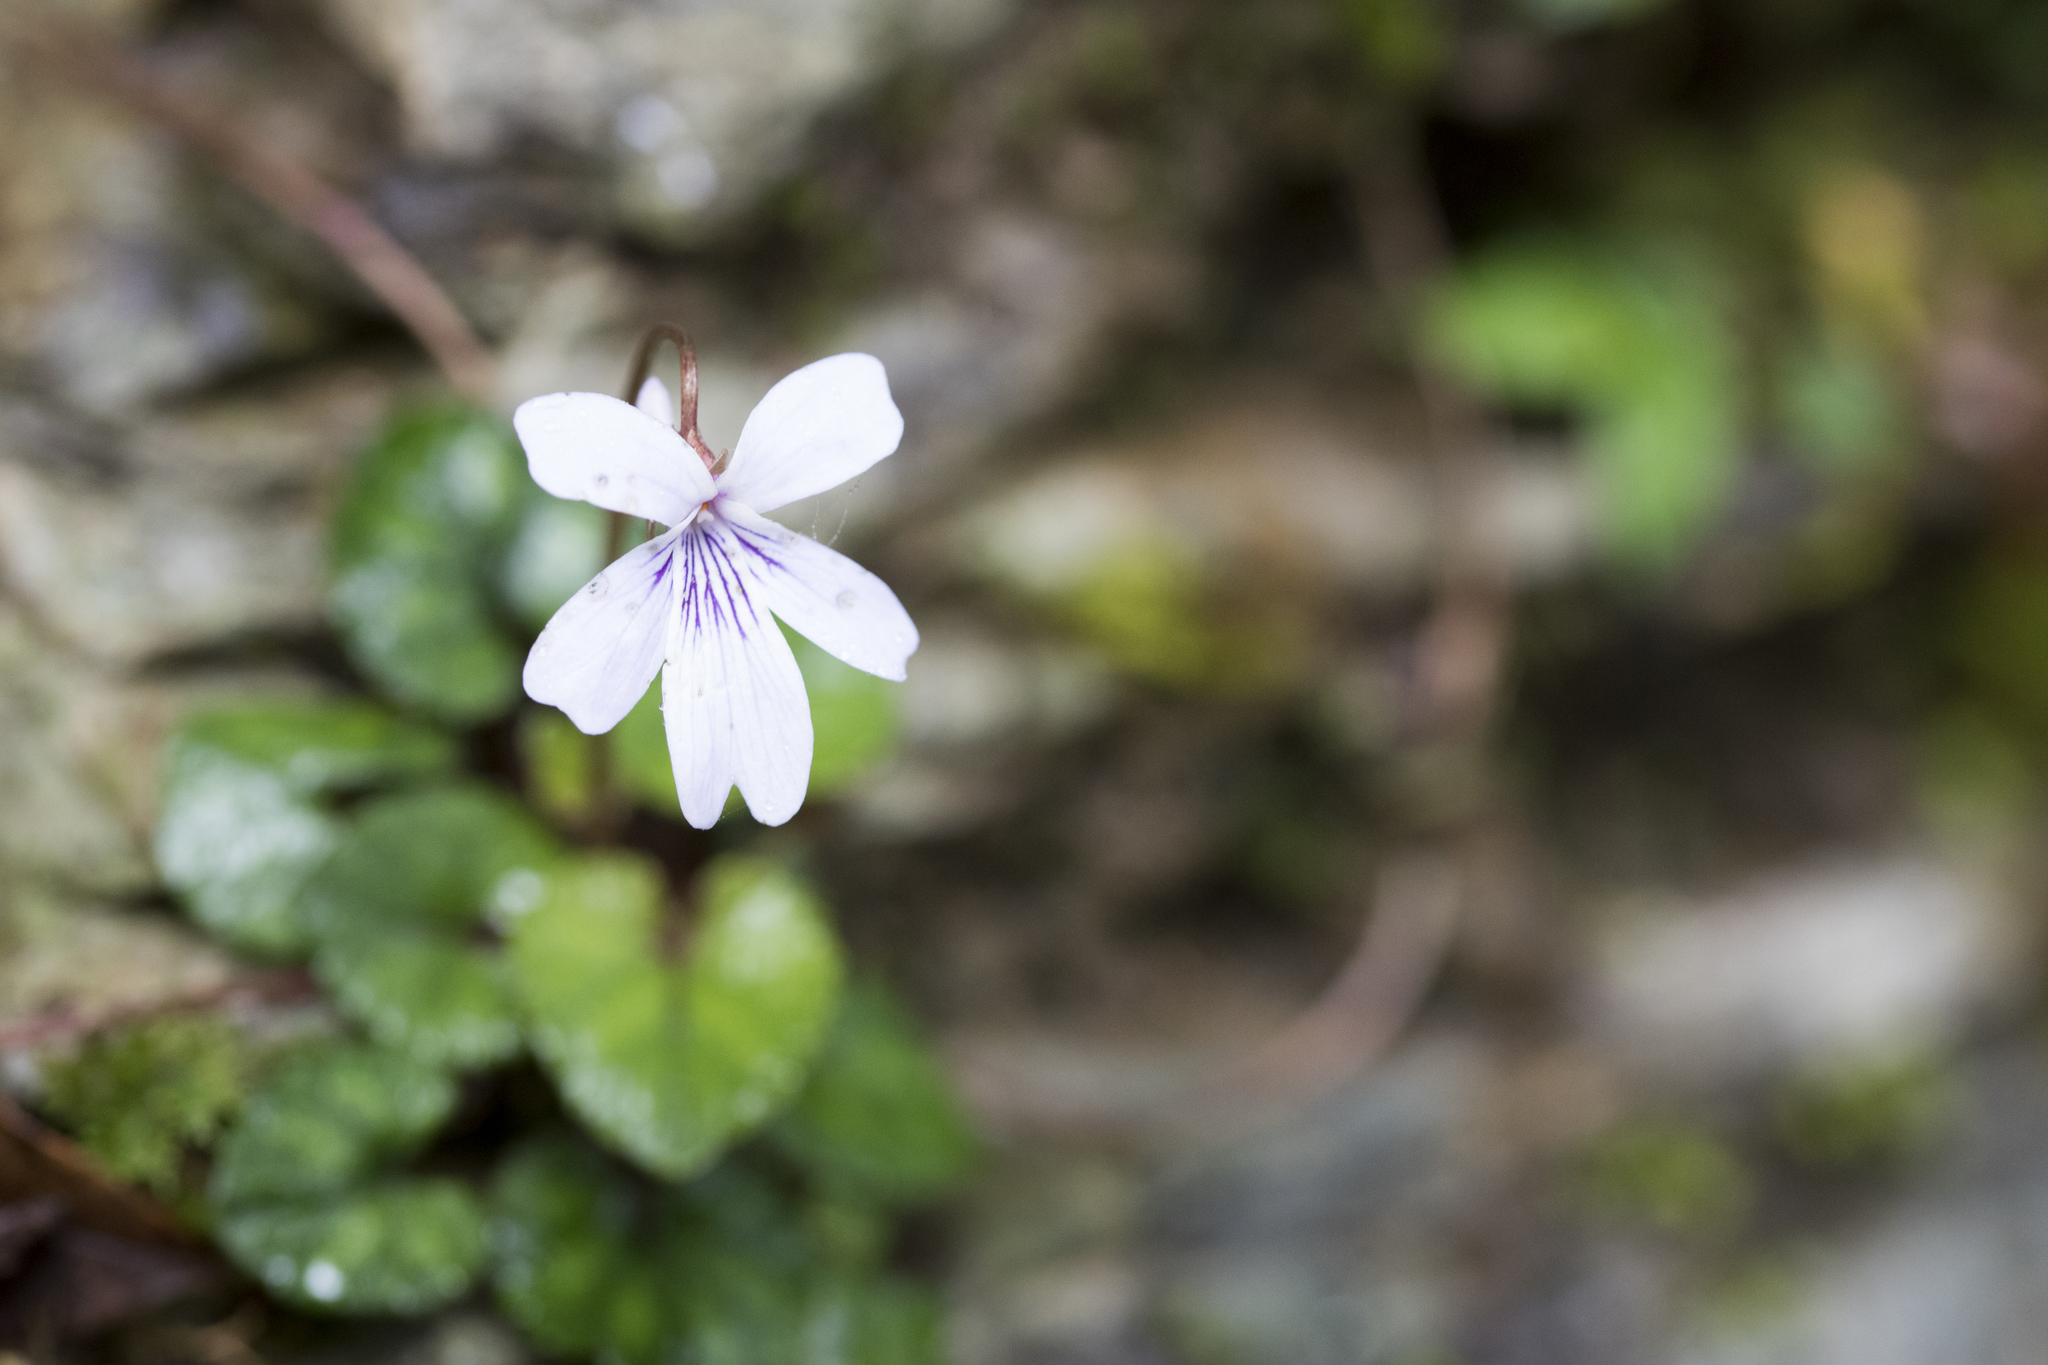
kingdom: Plantae
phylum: Tracheophyta
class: Magnoliopsida
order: Malpighiales
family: Violaceae
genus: Viola
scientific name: Viola formosana
